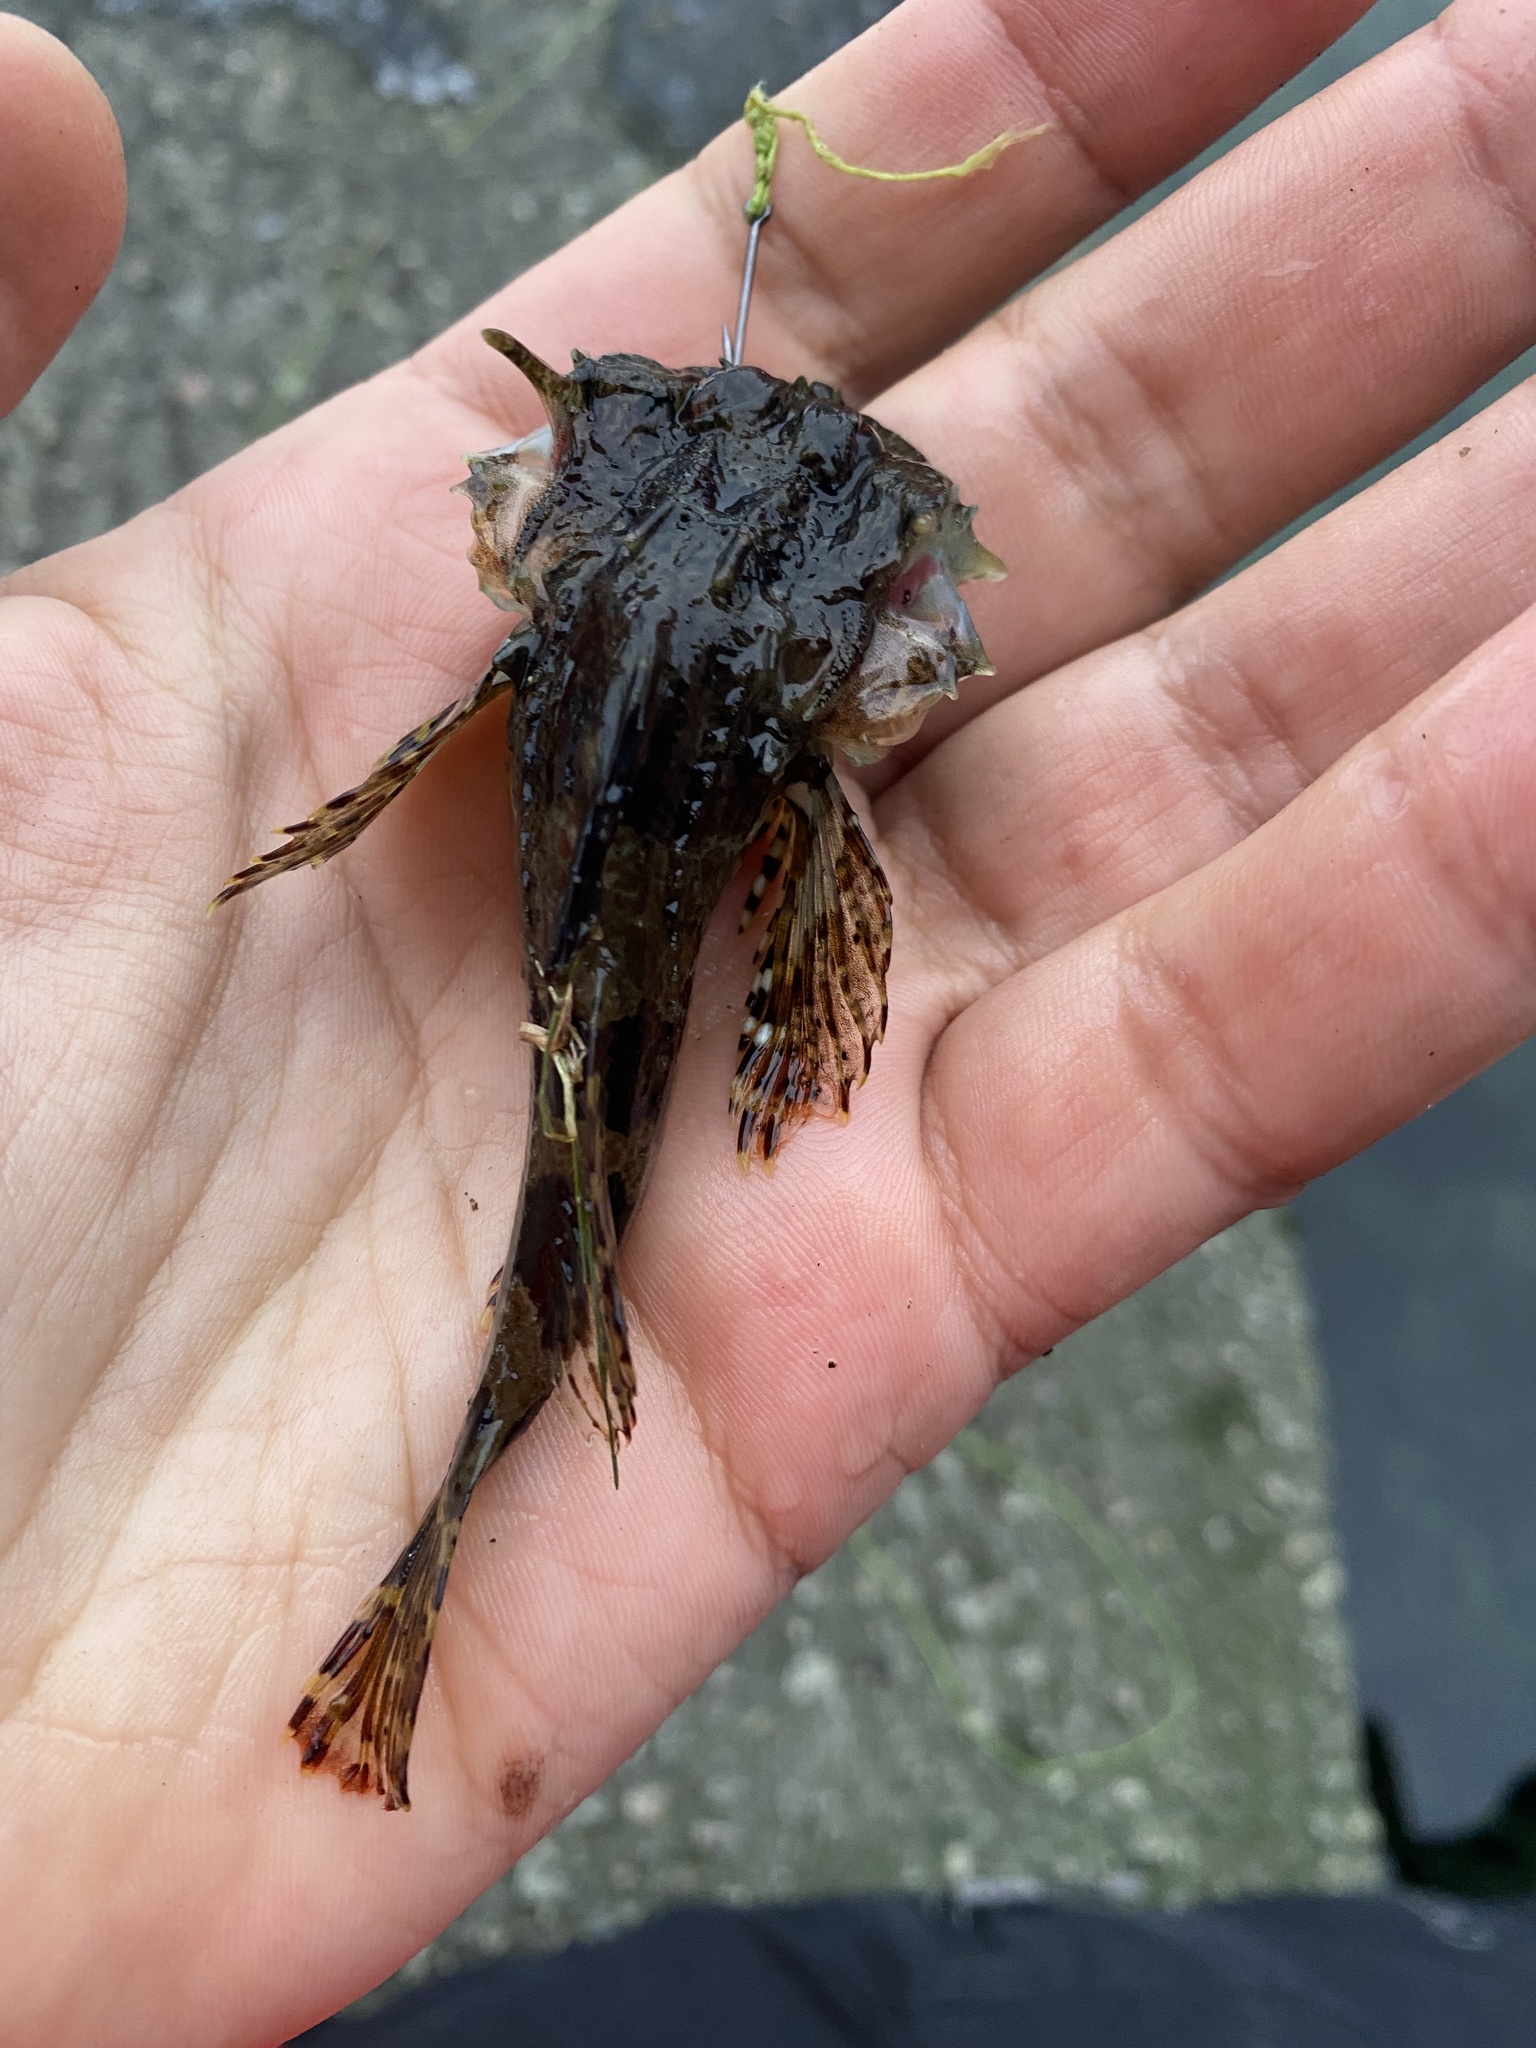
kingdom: Animalia
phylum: Chordata
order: Scorpaeniformes
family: Cottidae
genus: Taurulus
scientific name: Taurulus bubalis
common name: Sea scorpion
